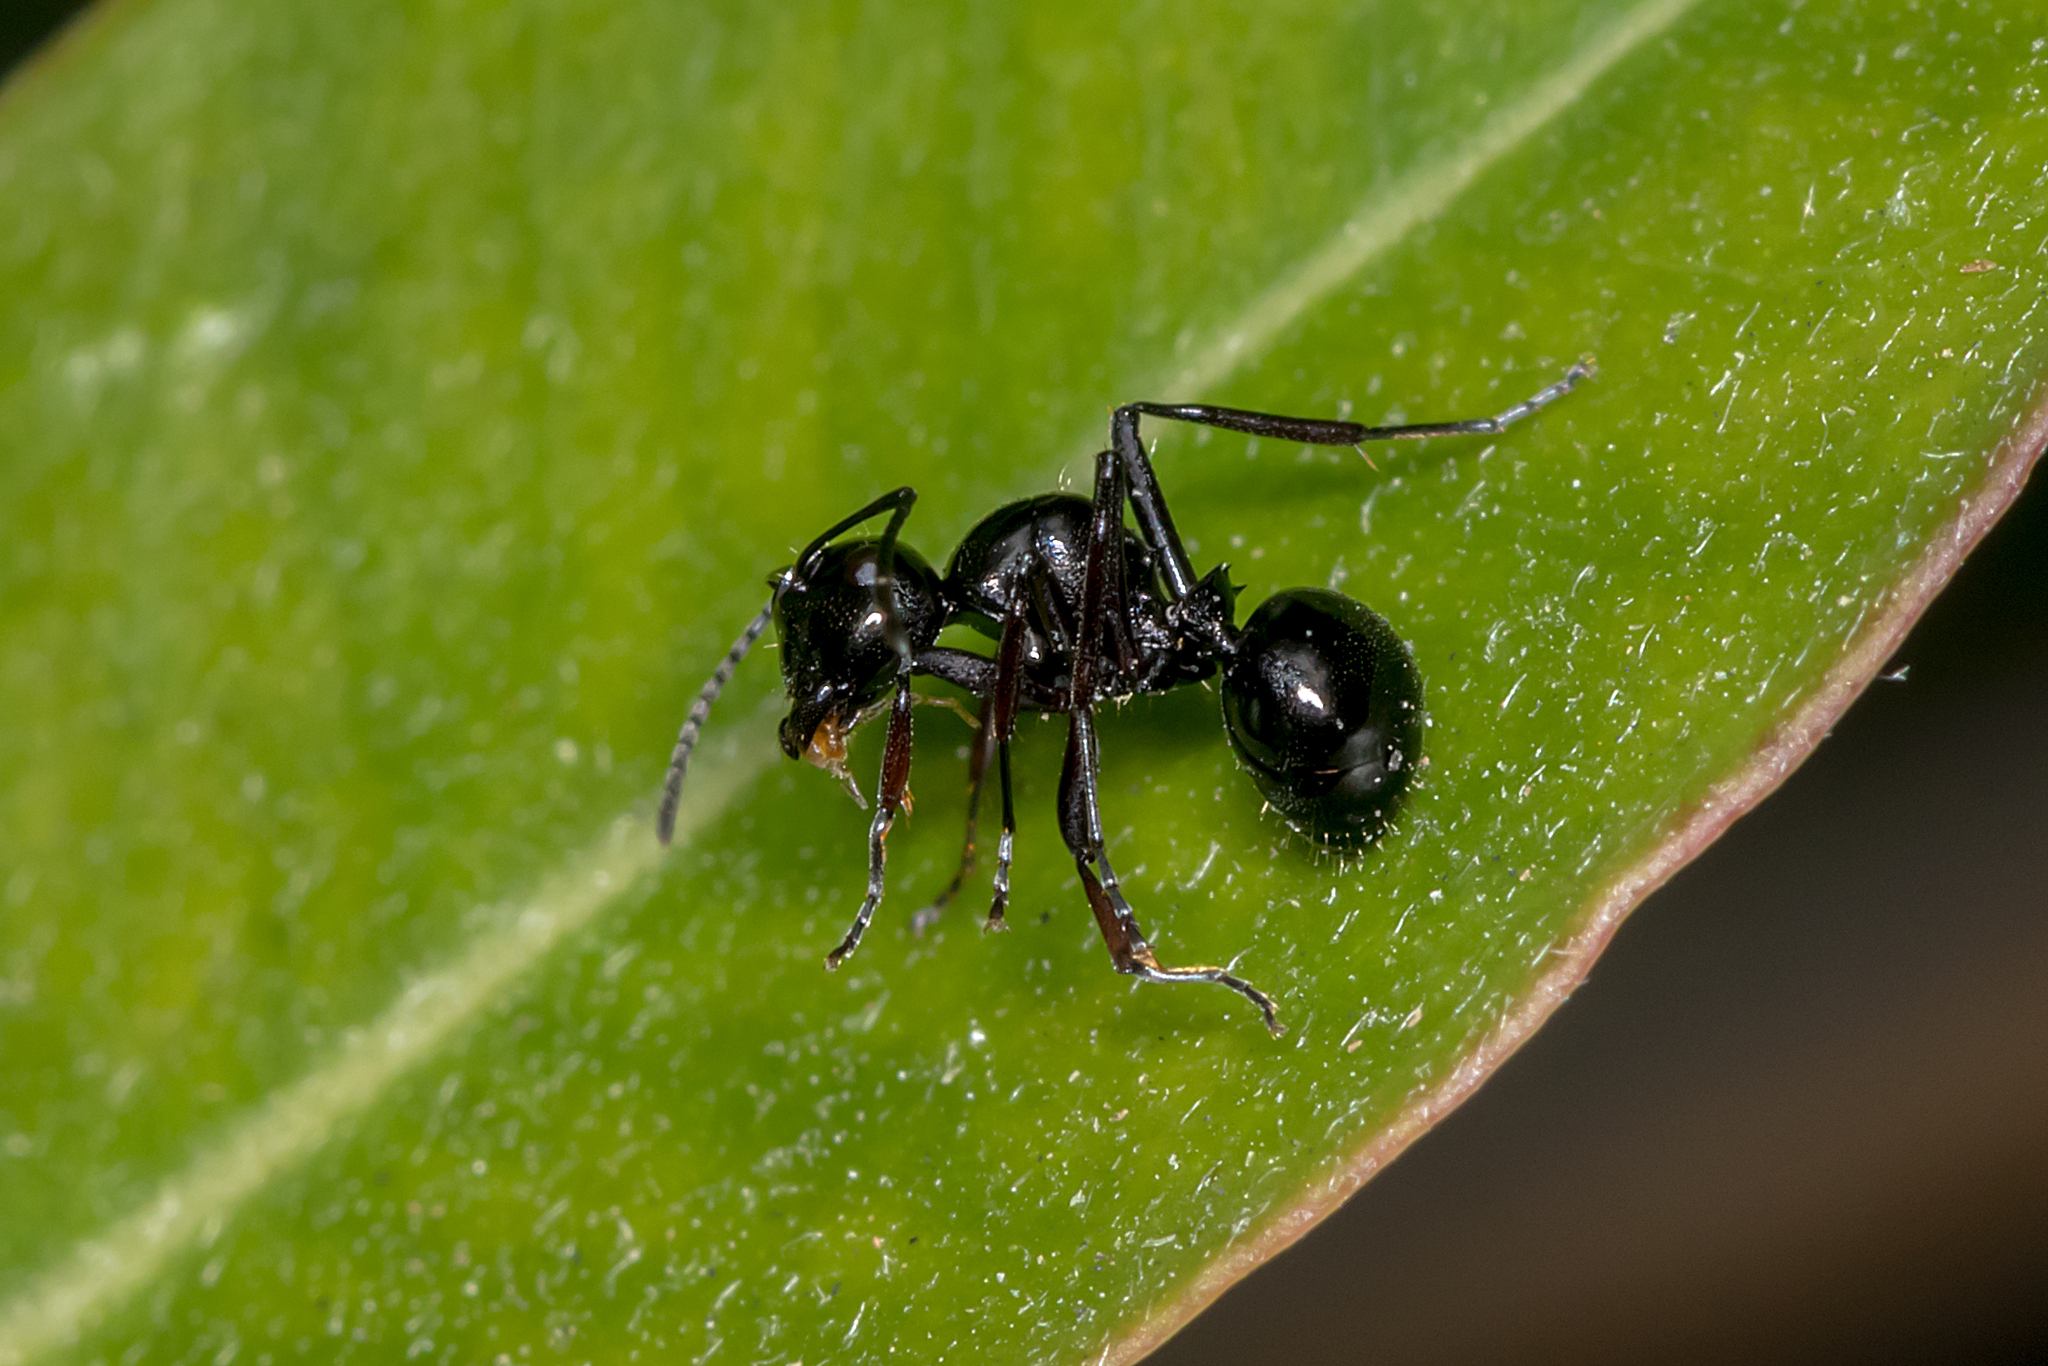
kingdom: Animalia
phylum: Arthropoda
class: Insecta
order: Hymenoptera
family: Formicidae
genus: Polyrhachis
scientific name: Polyrhachis australis
